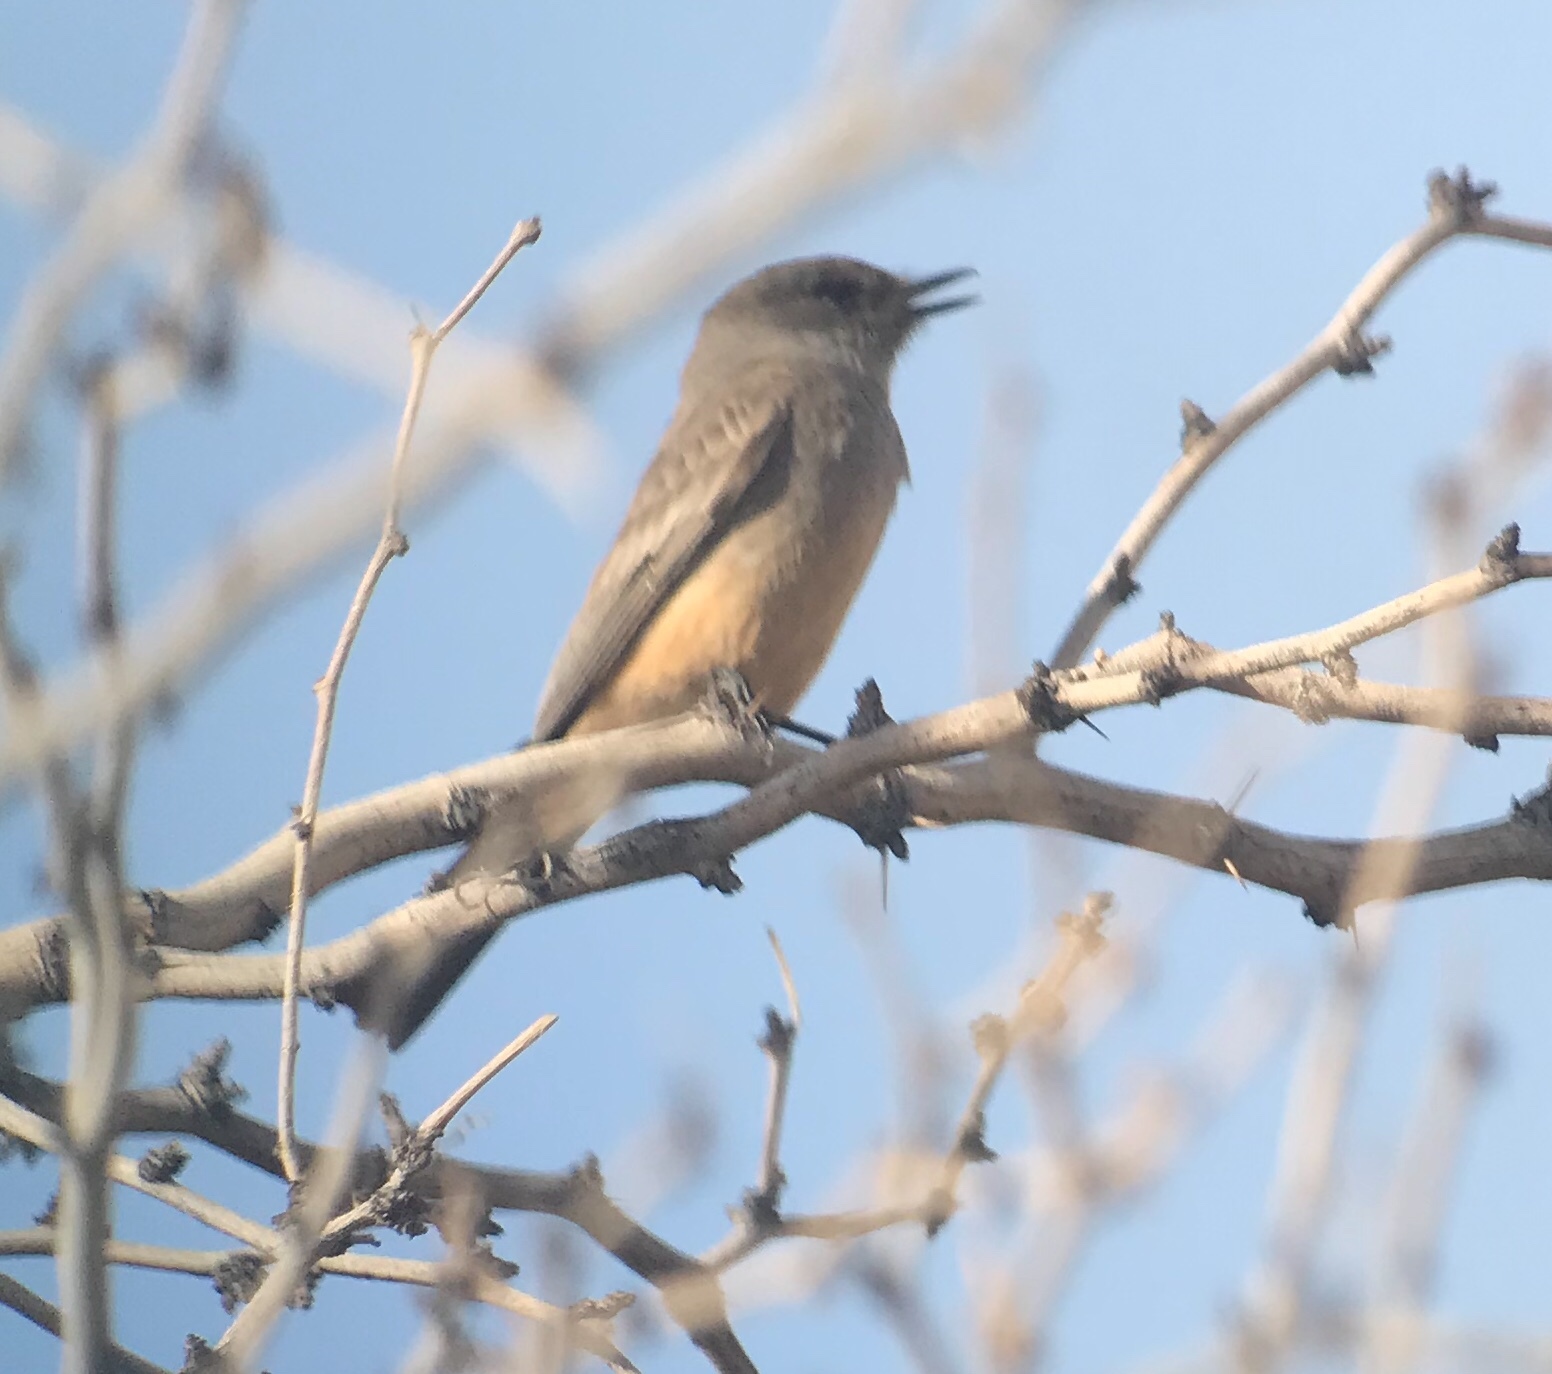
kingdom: Animalia
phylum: Chordata
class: Aves
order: Passeriformes
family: Tyrannidae
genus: Sayornis
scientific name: Sayornis saya
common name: Say's phoebe
